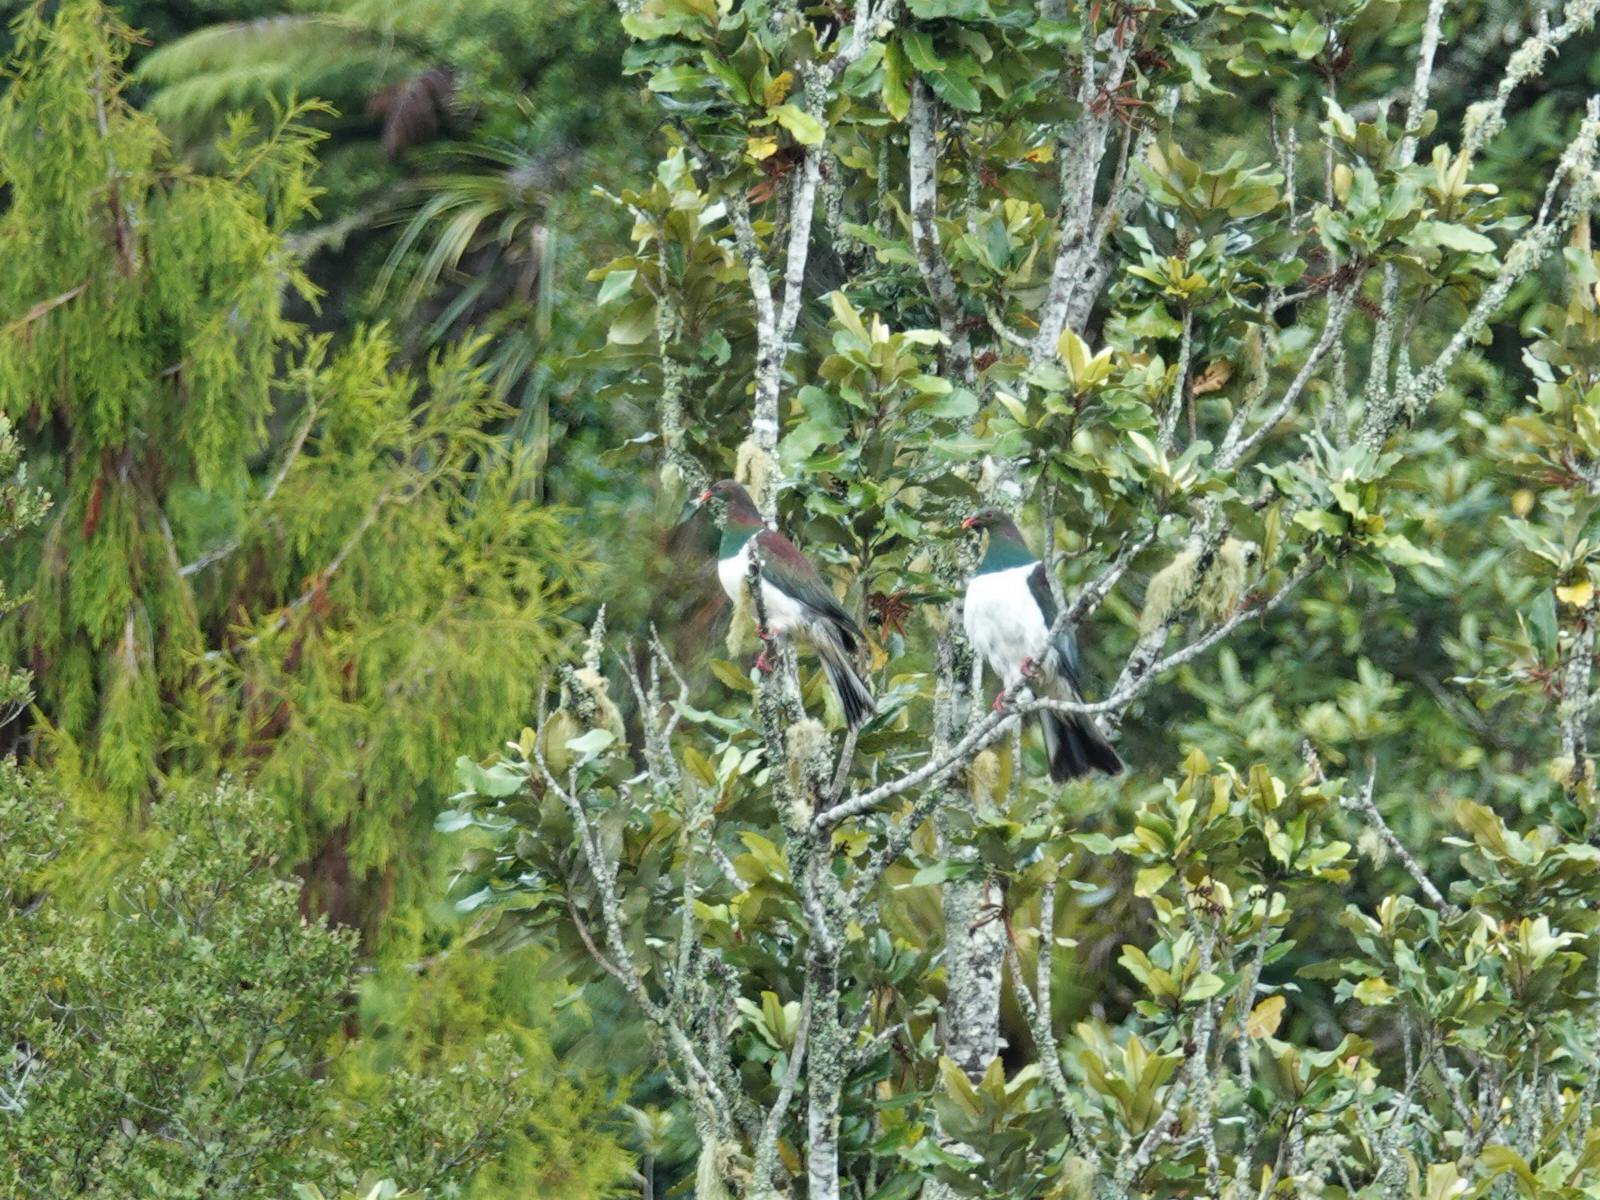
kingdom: Animalia
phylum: Chordata
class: Aves
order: Columbiformes
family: Columbidae
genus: Hemiphaga
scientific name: Hemiphaga novaeseelandiae
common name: New zealand pigeon
